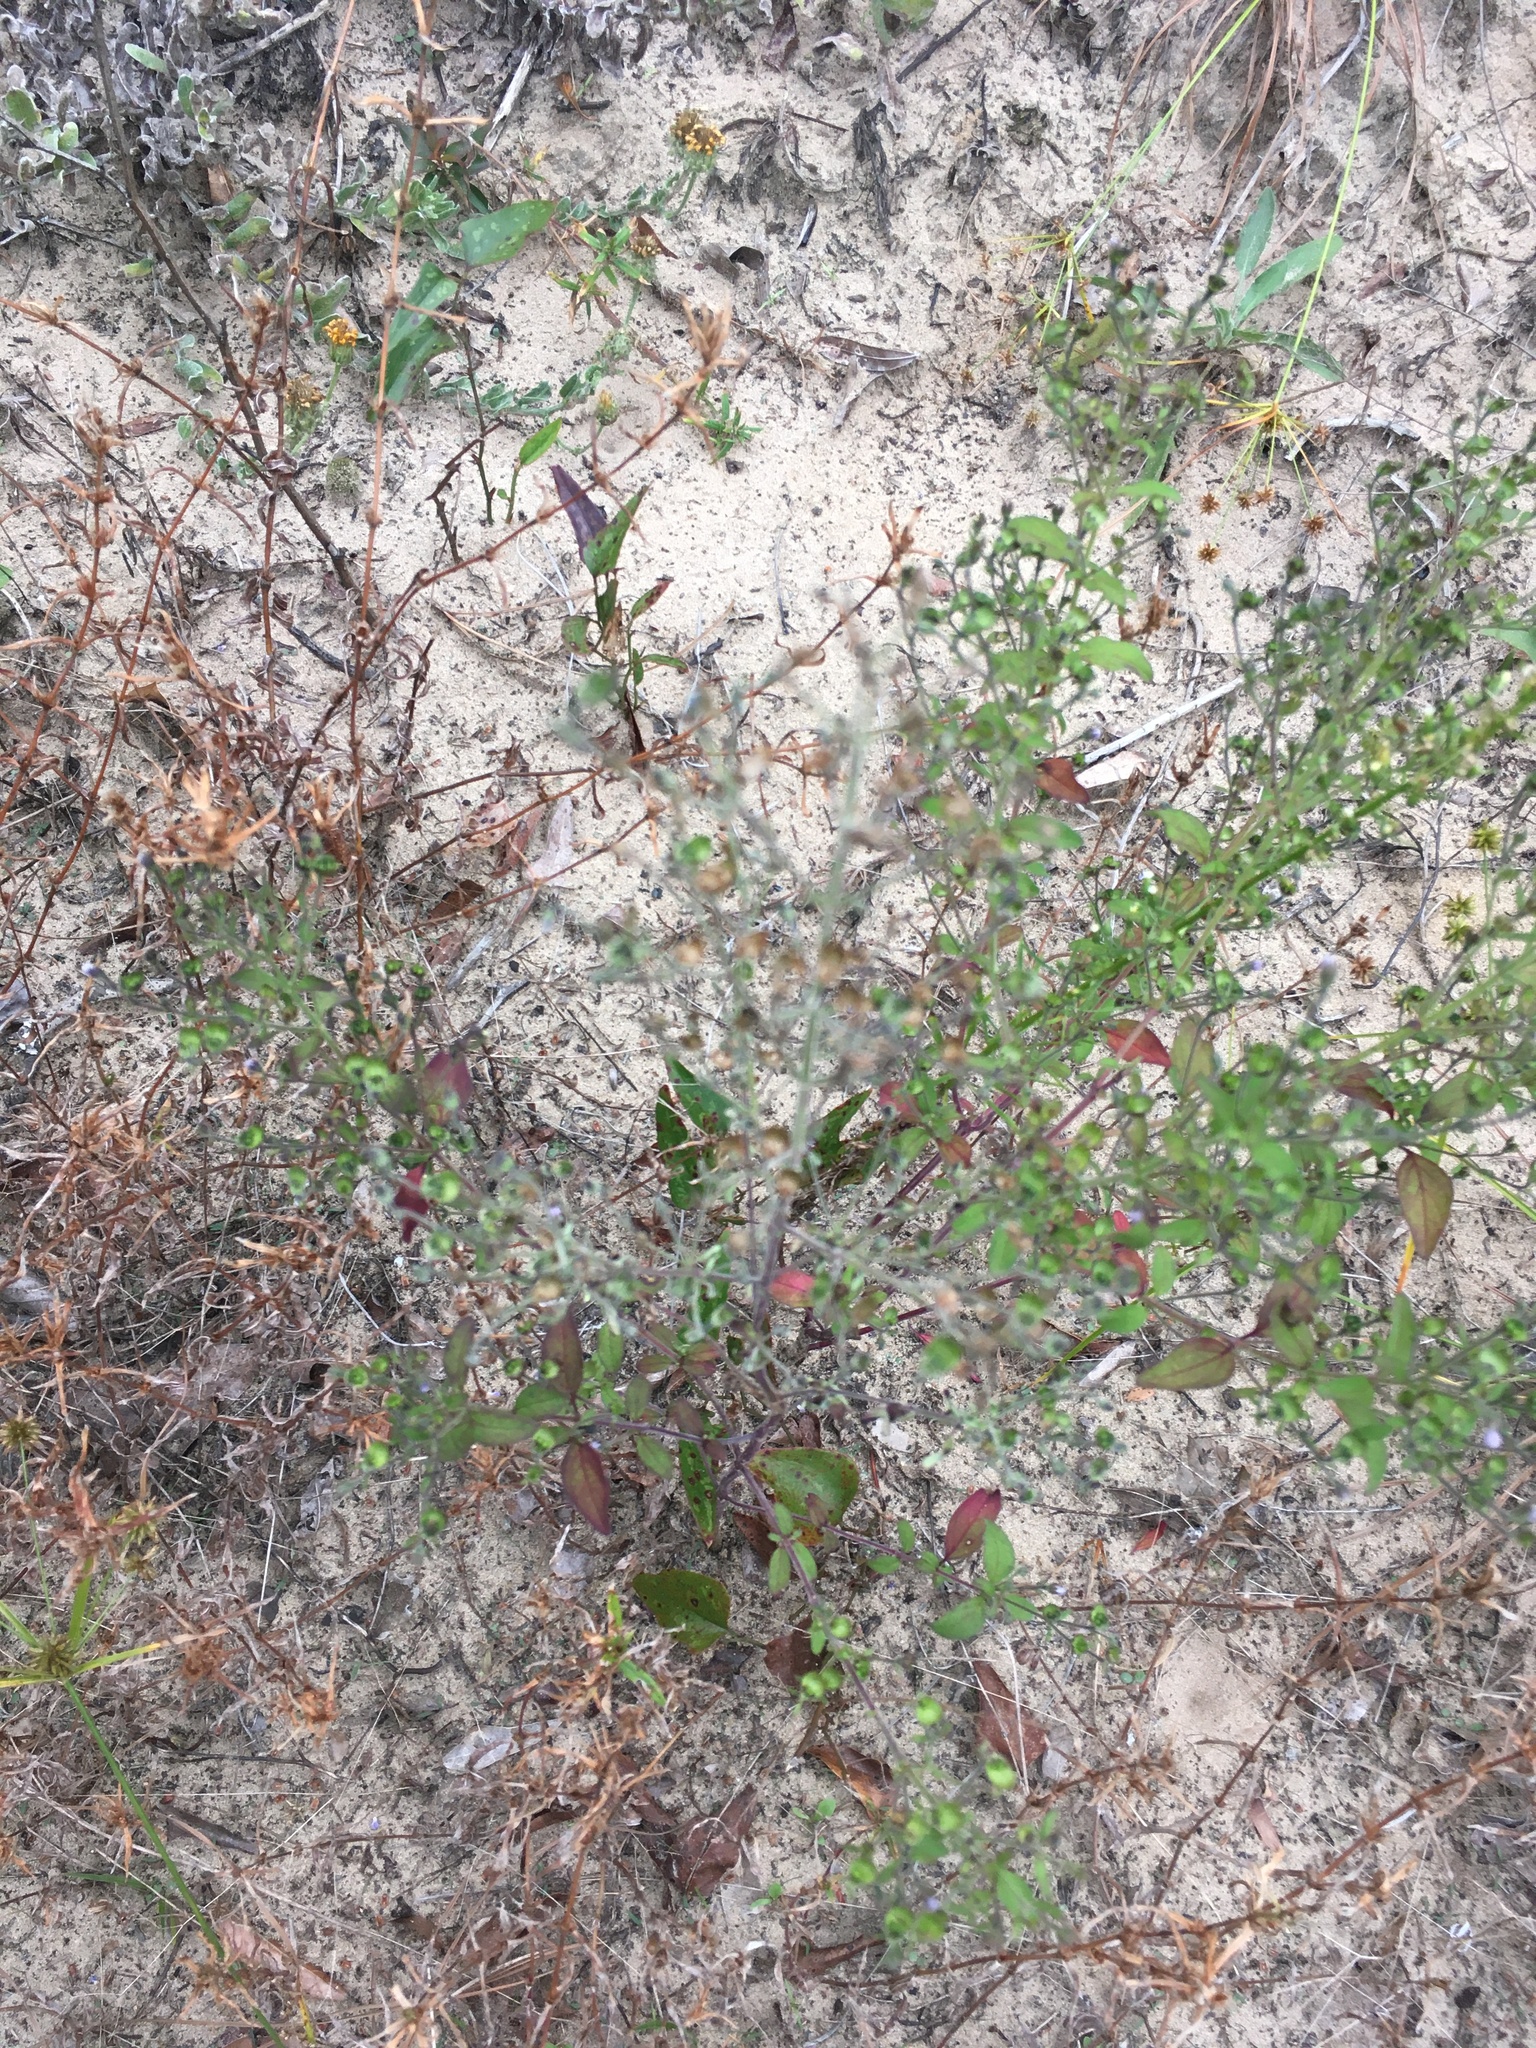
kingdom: Plantae
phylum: Tracheophyta
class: Magnoliopsida
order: Lamiales
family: Lamiaceae
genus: Trichostema
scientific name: Trichostema dichotomum
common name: Bastard pennyroyal
